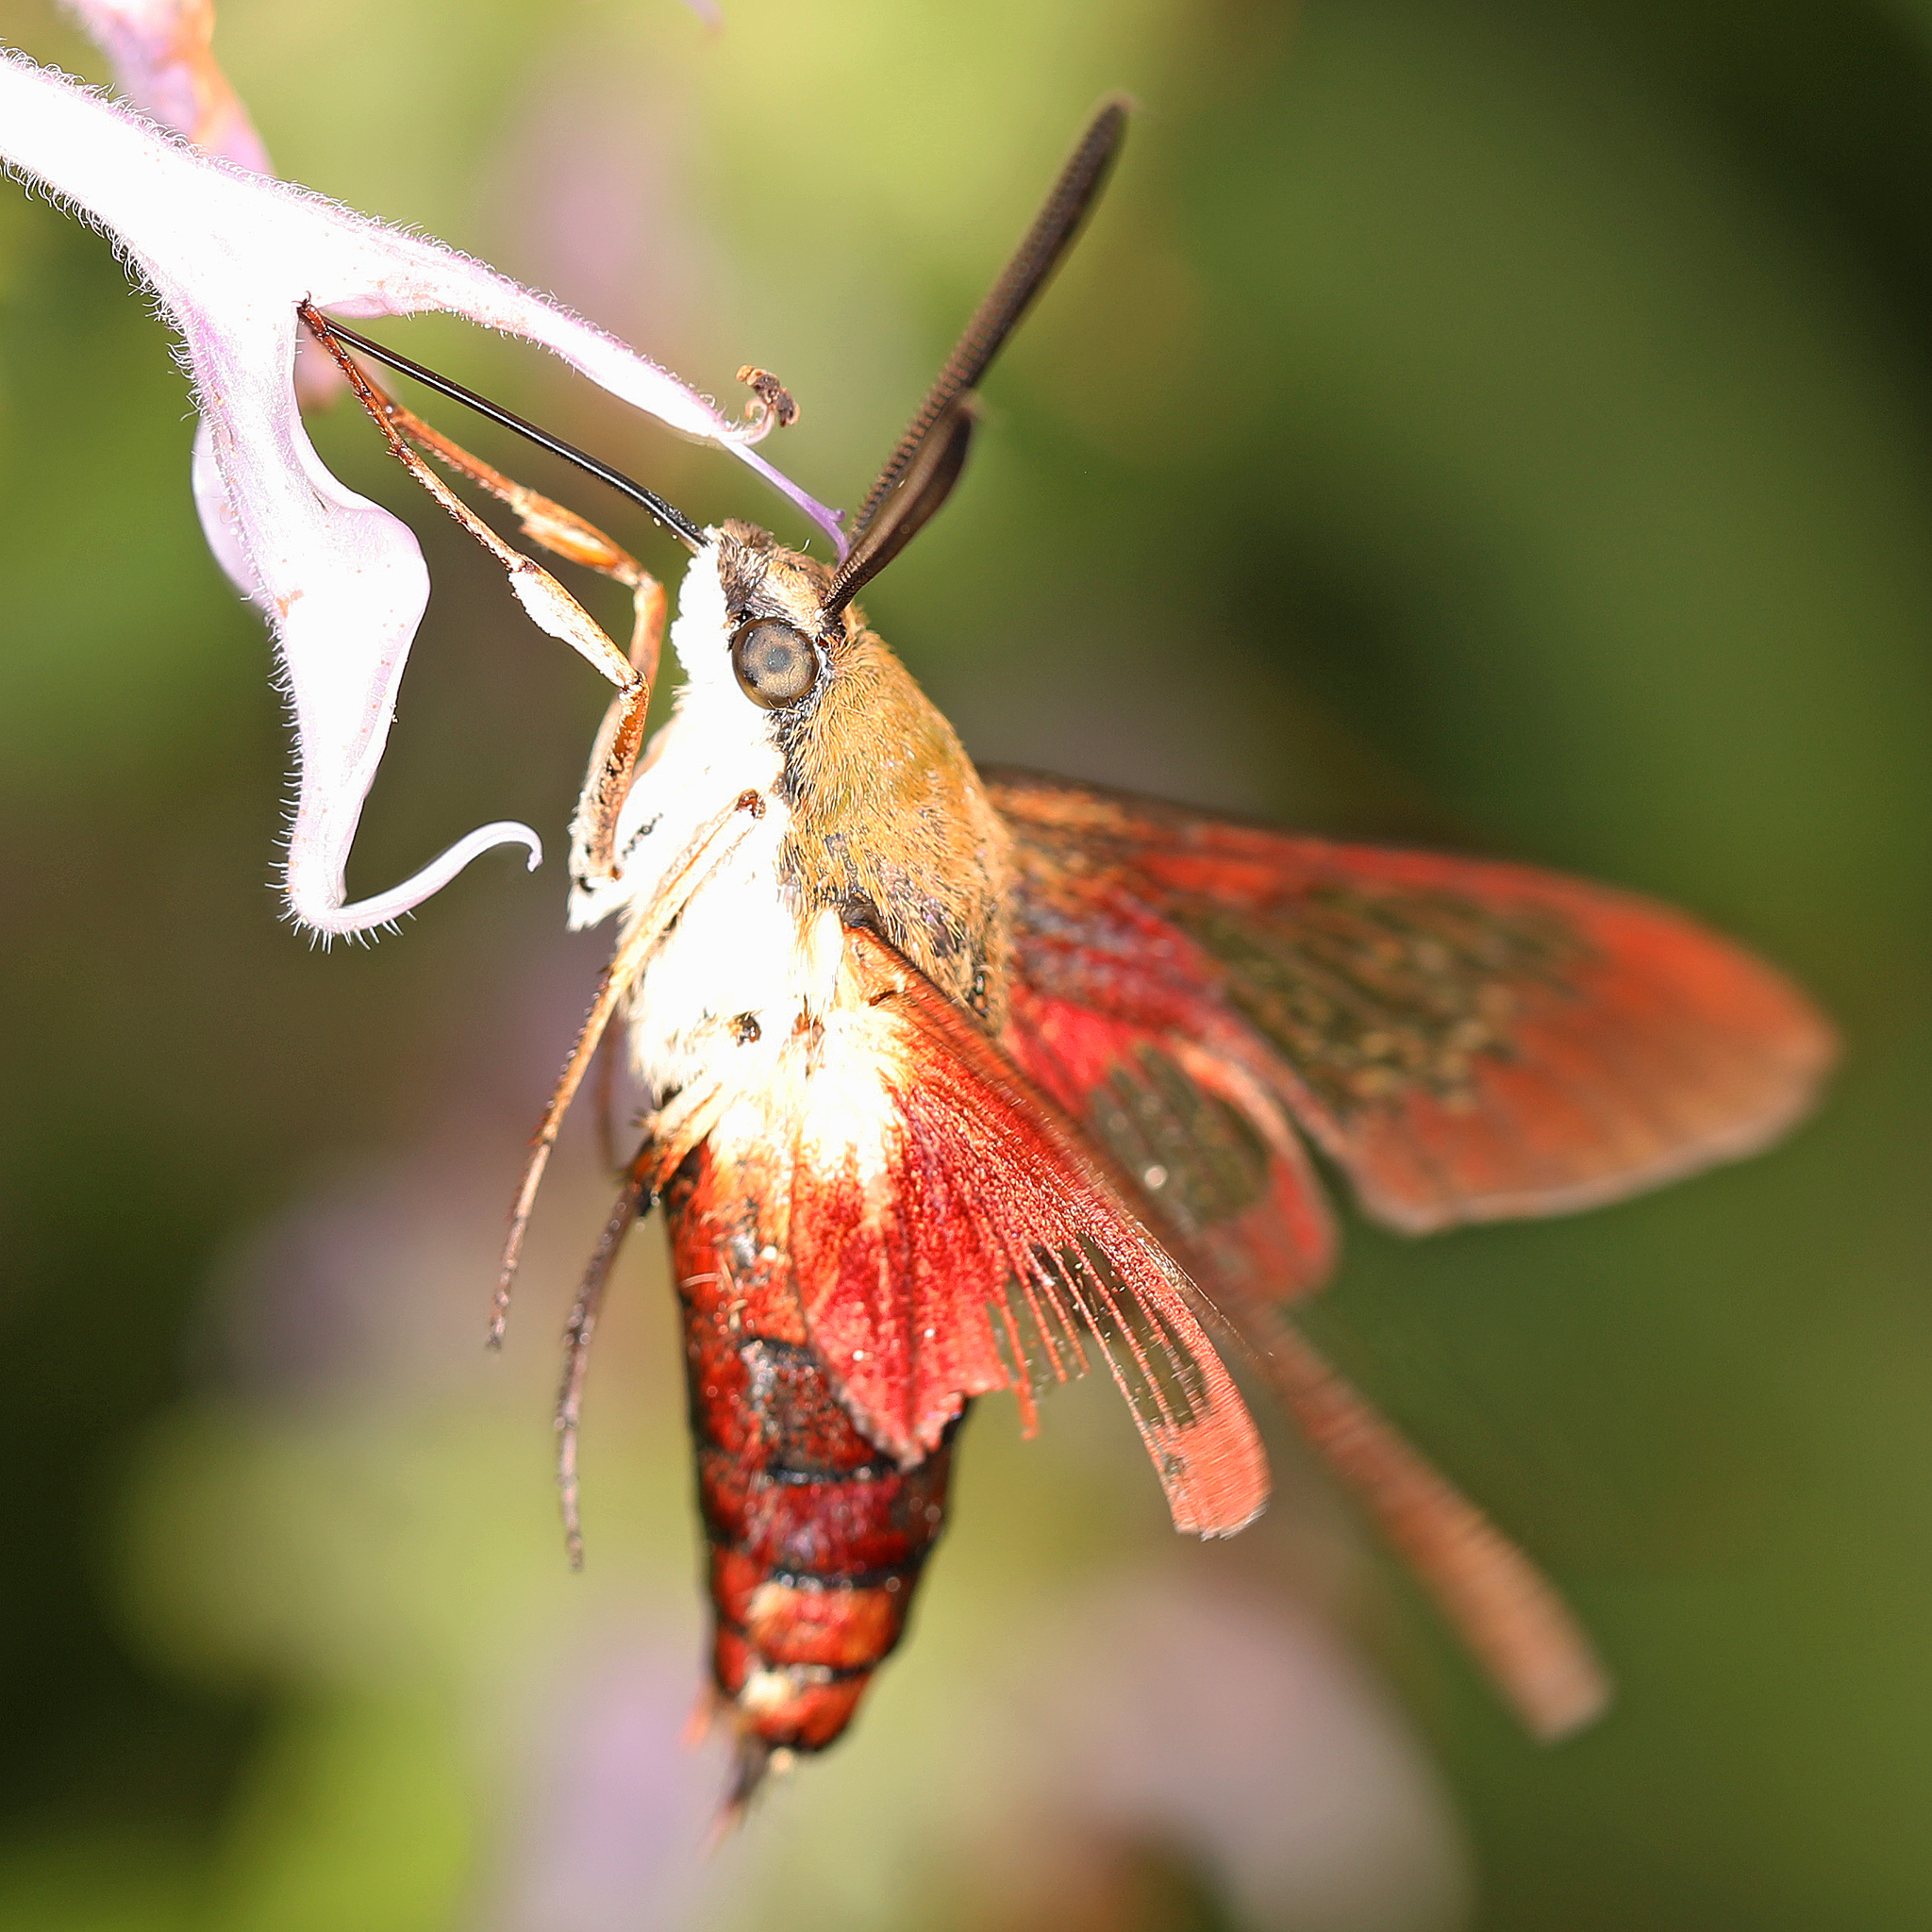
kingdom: Animalia
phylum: Arthropoda
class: Insecta
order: Lepidoptera
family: Sphingidae
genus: Hemaris
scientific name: Hemaris thysbe
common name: Common clear-wing
